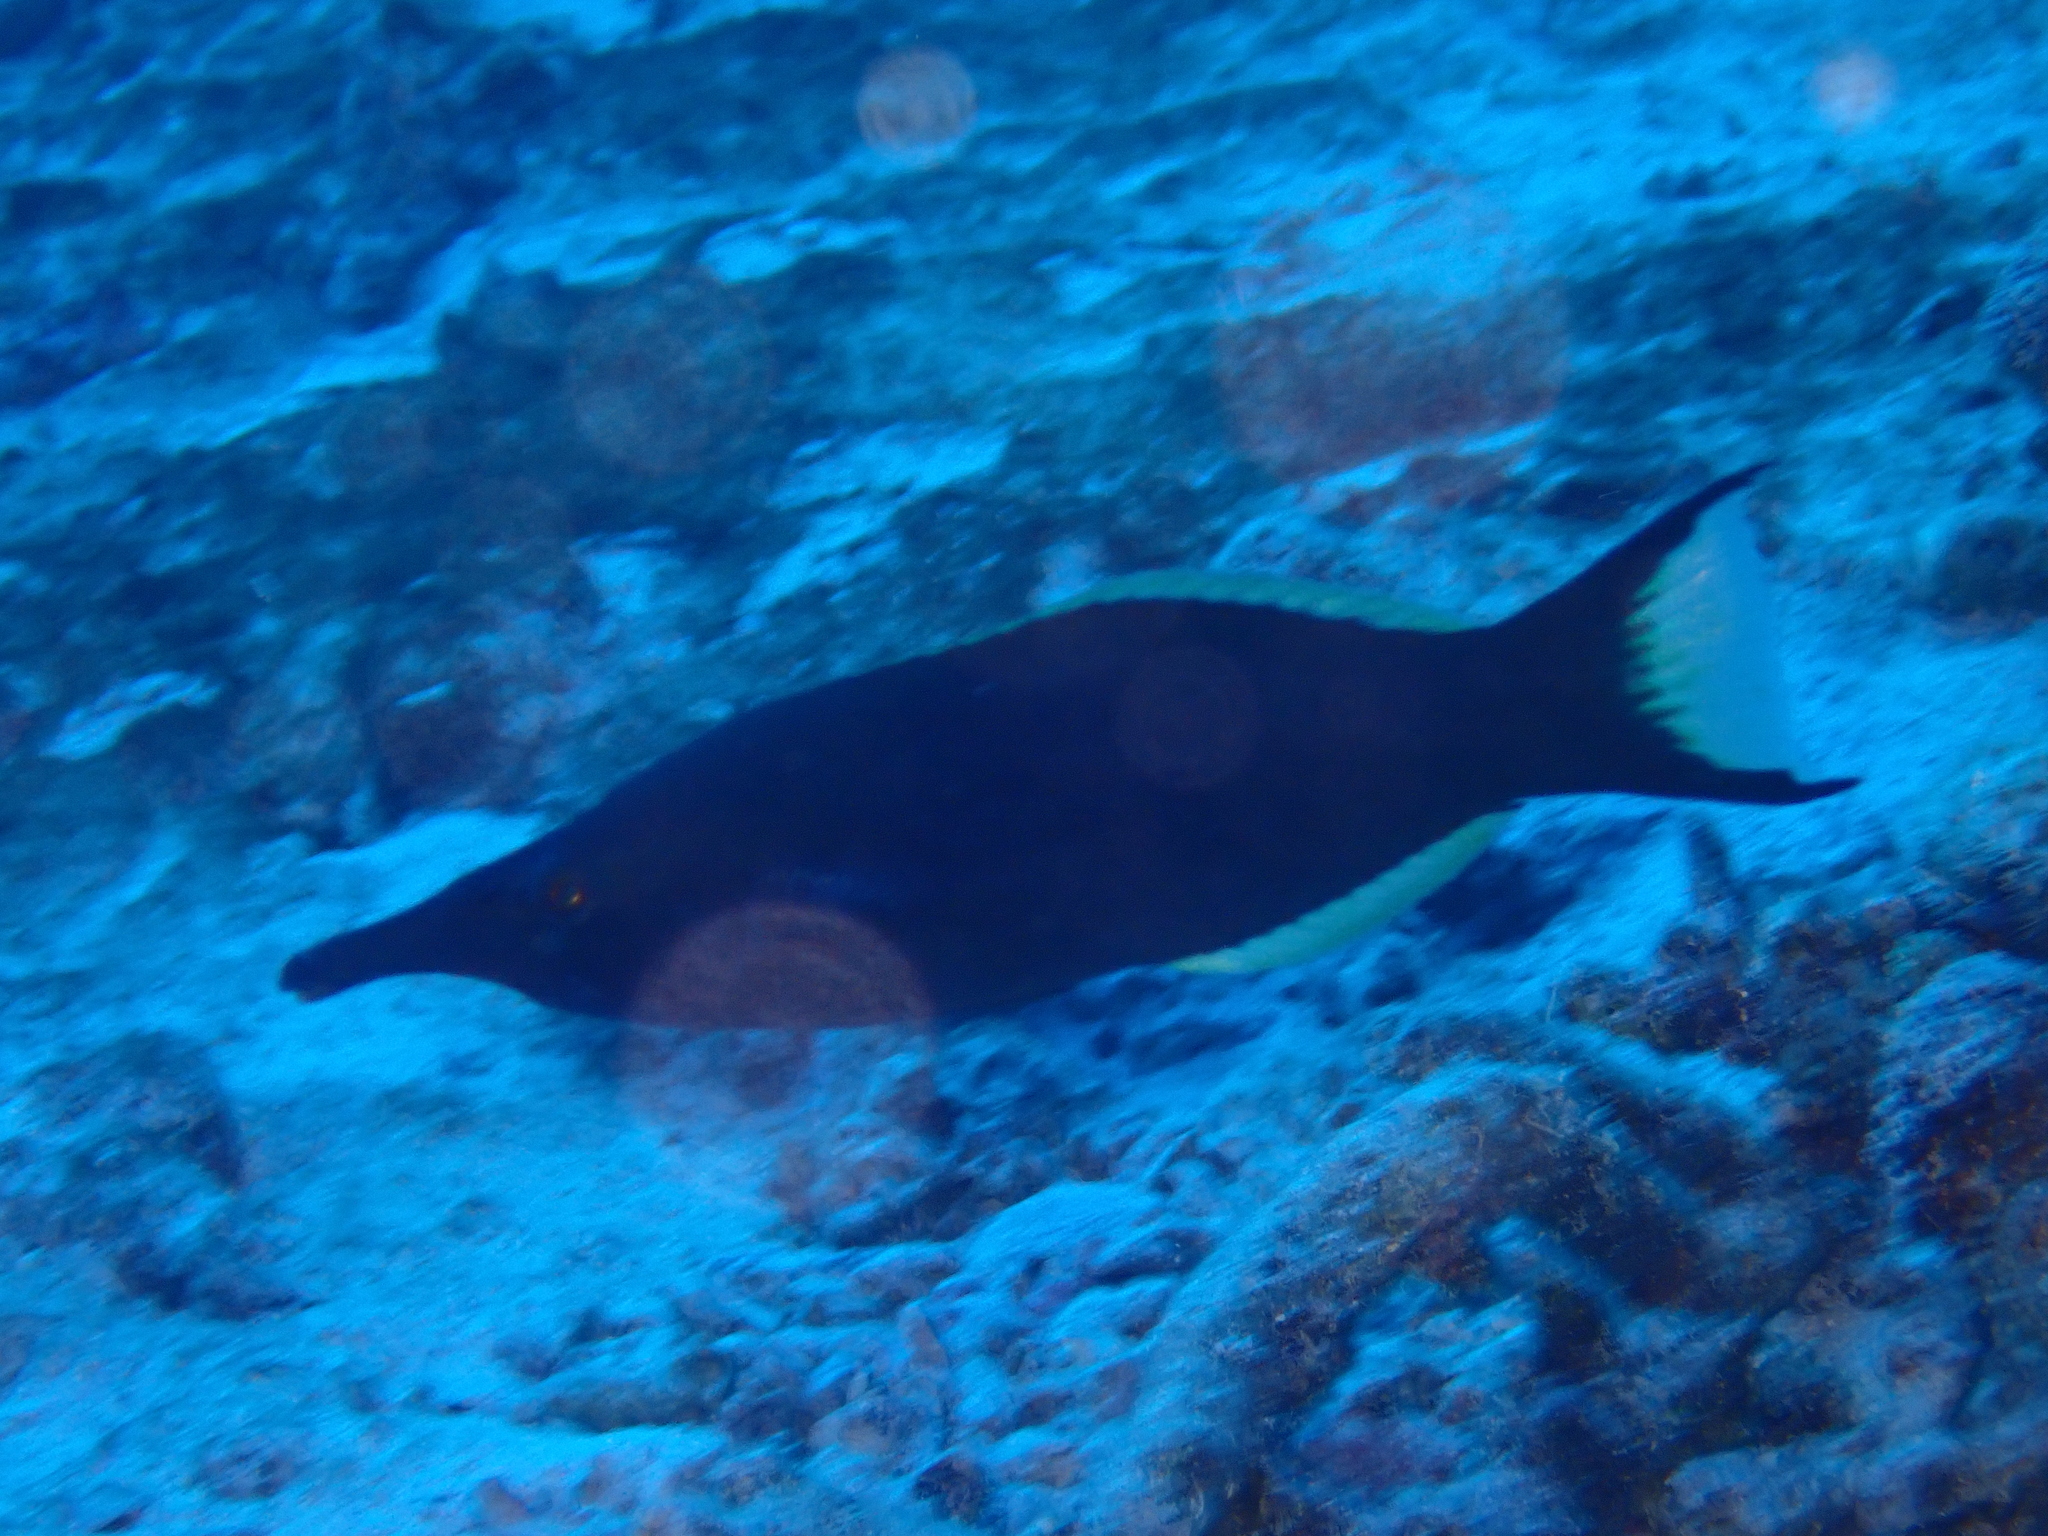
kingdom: Animalia
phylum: Chordata
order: Perciformes
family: Labridae
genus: Gomphosus
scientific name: Gomphosus klunzingeri
